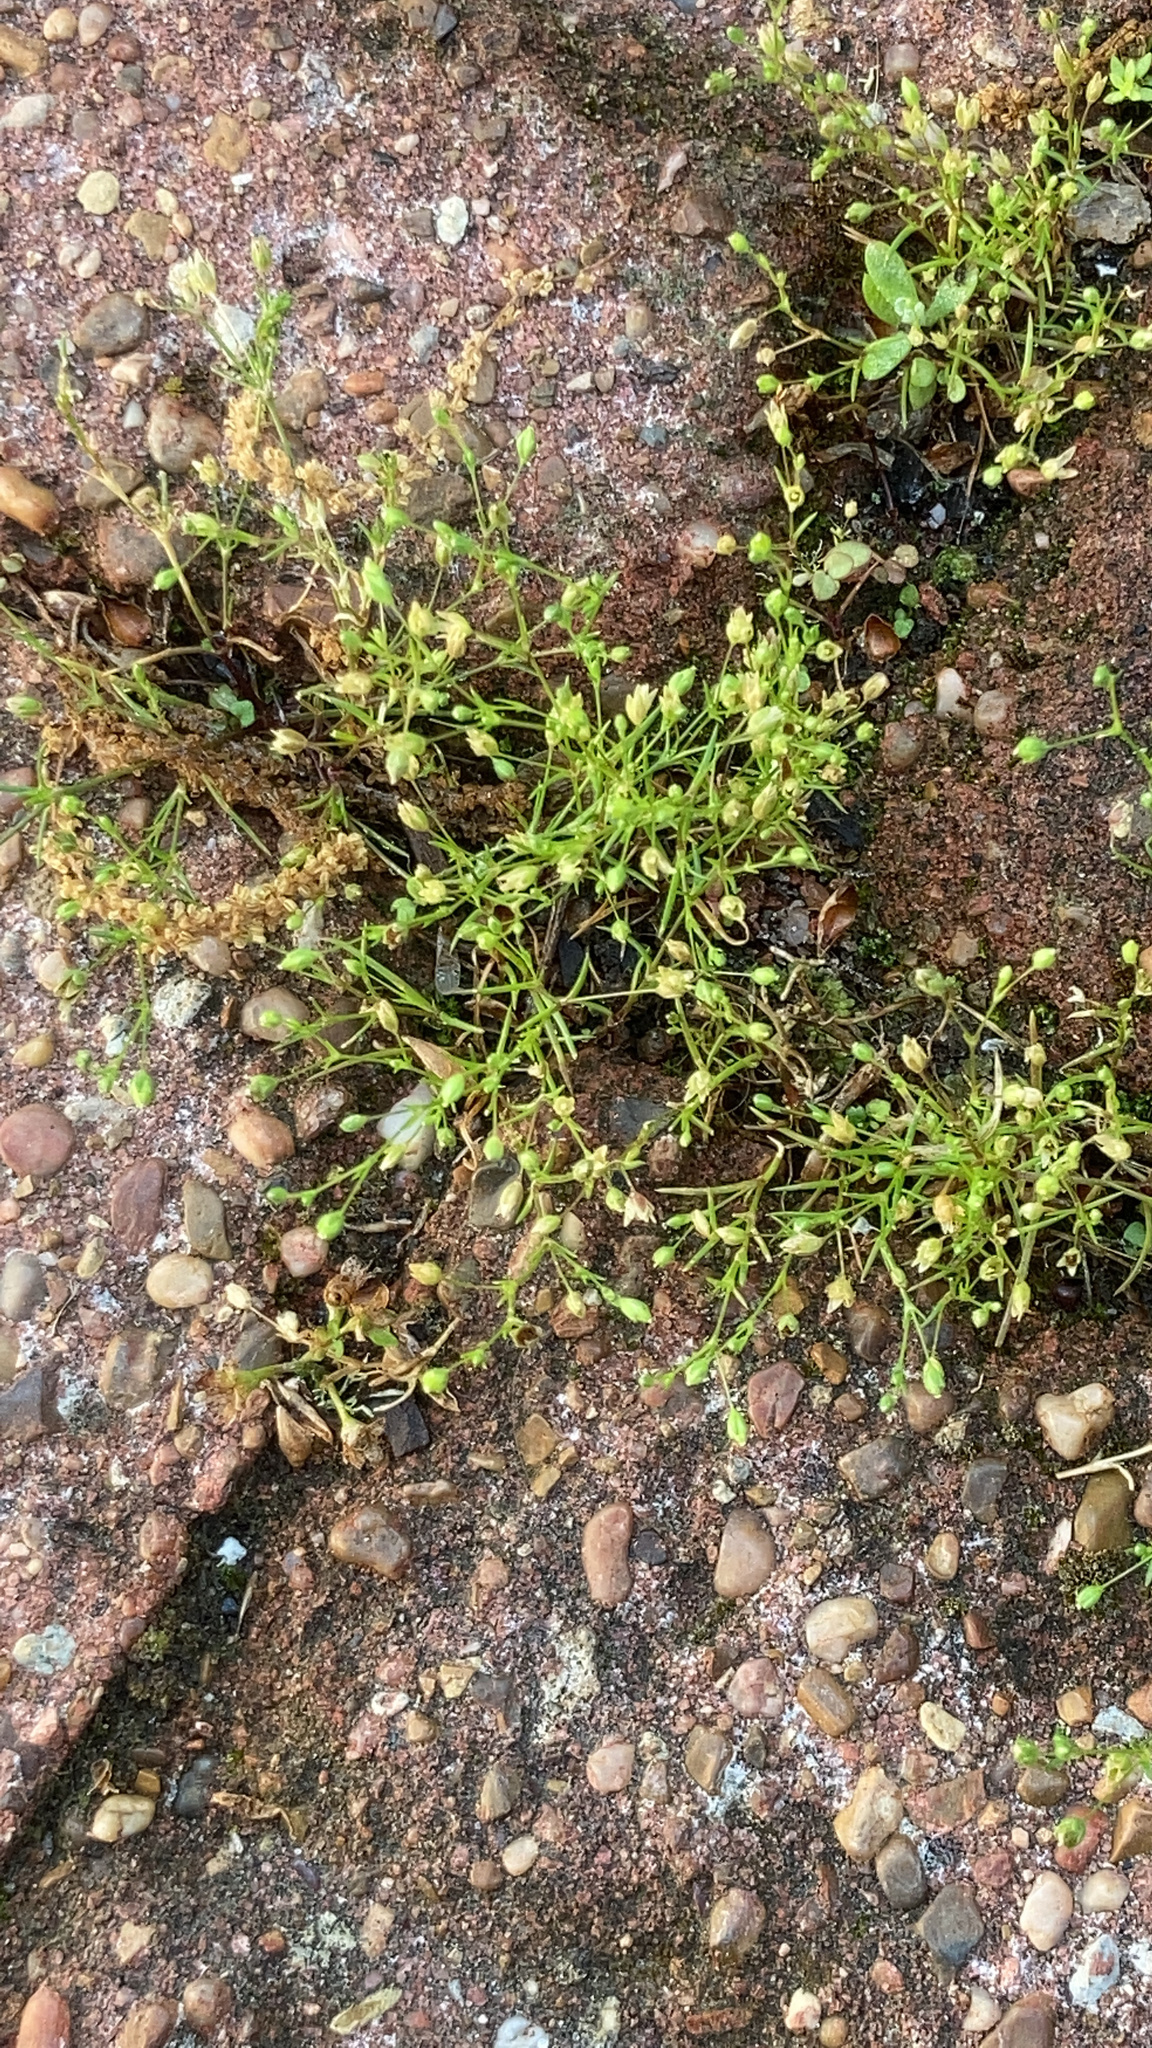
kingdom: Plantae
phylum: Tracheophyta
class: Magnoliopsida
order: Caryophyllales
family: Caryophyllaceae
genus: Sagina
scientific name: Sagina decumbens
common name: Decumbent pearlwort
